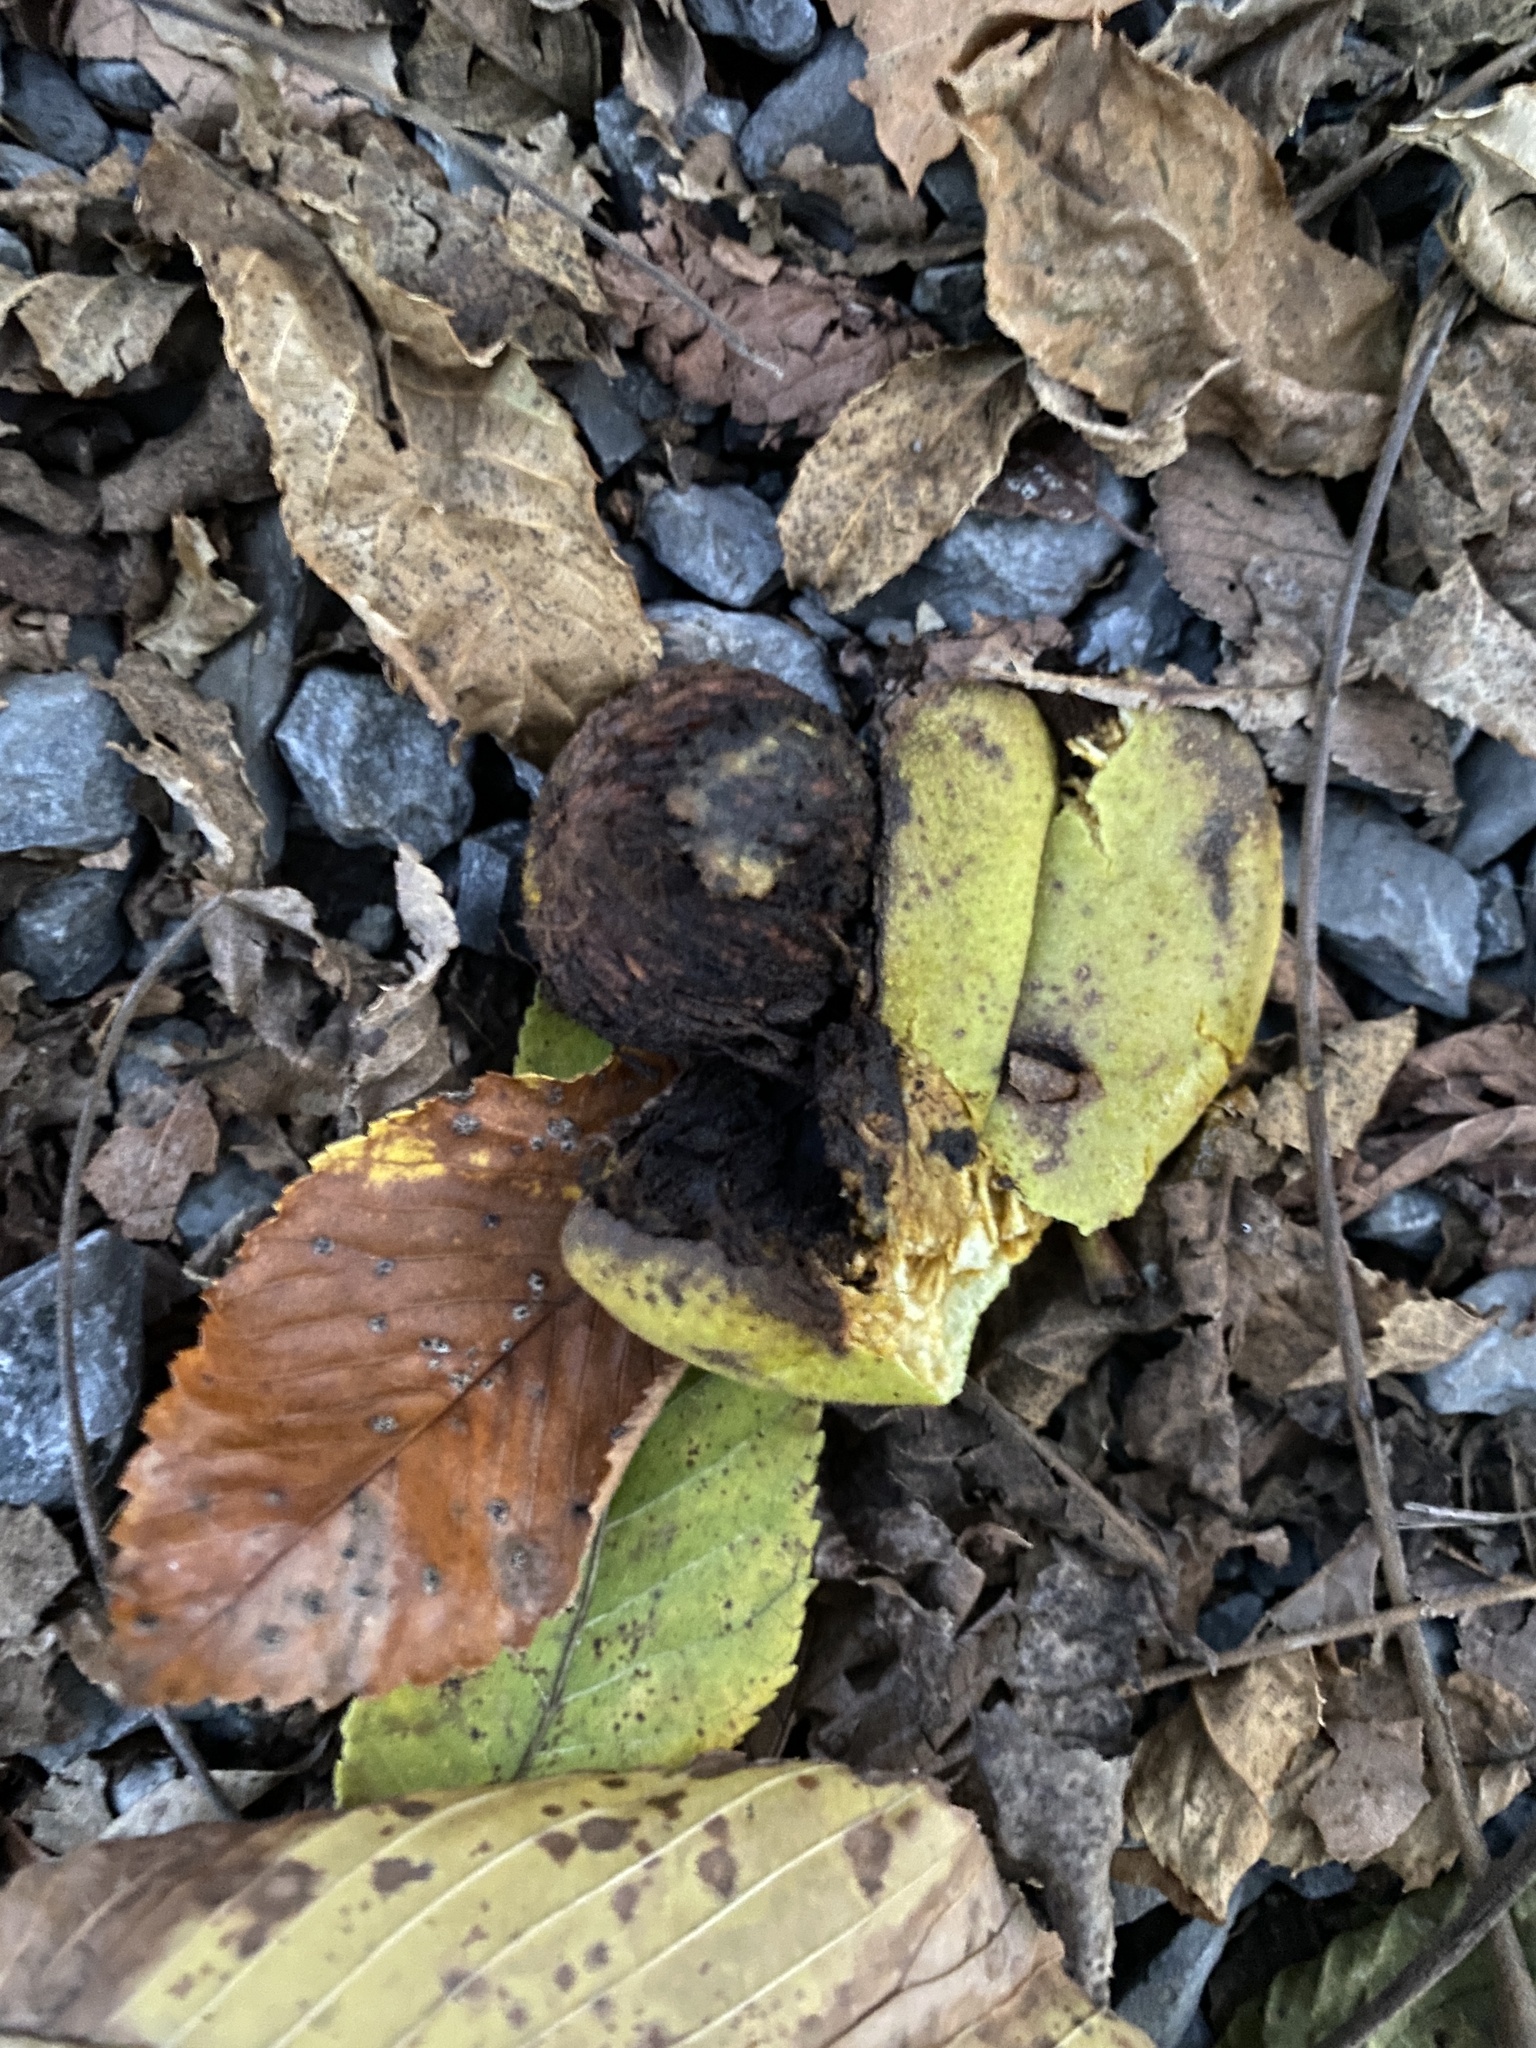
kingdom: Plantae
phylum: Tracheophyta
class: Magnoliopsida
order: Fagales
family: Juglandaceae
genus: Juglans
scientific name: Juglans nigra
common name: Black walnut
